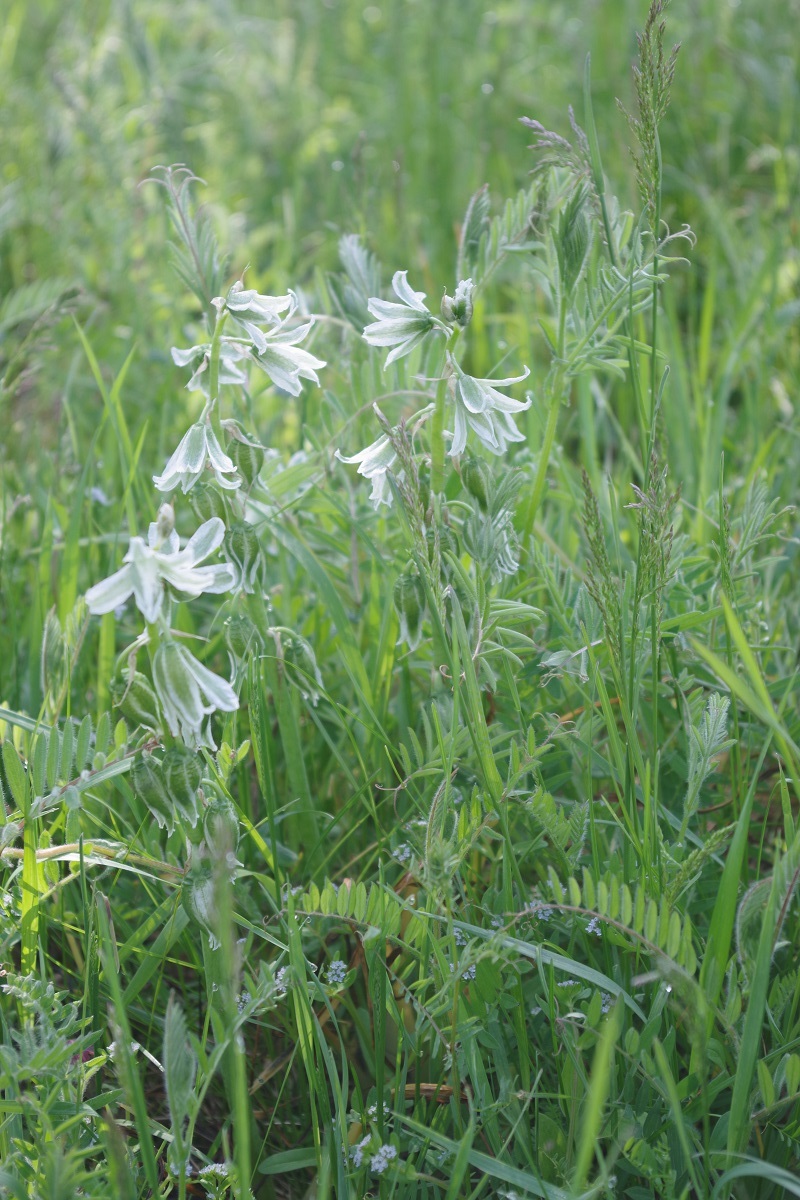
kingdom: Plantae
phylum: Tracheophyta
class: Liliopsida
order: Asparagales
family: Asparagaceae
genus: Ornithogalum
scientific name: Ornithogalum boucheanum
